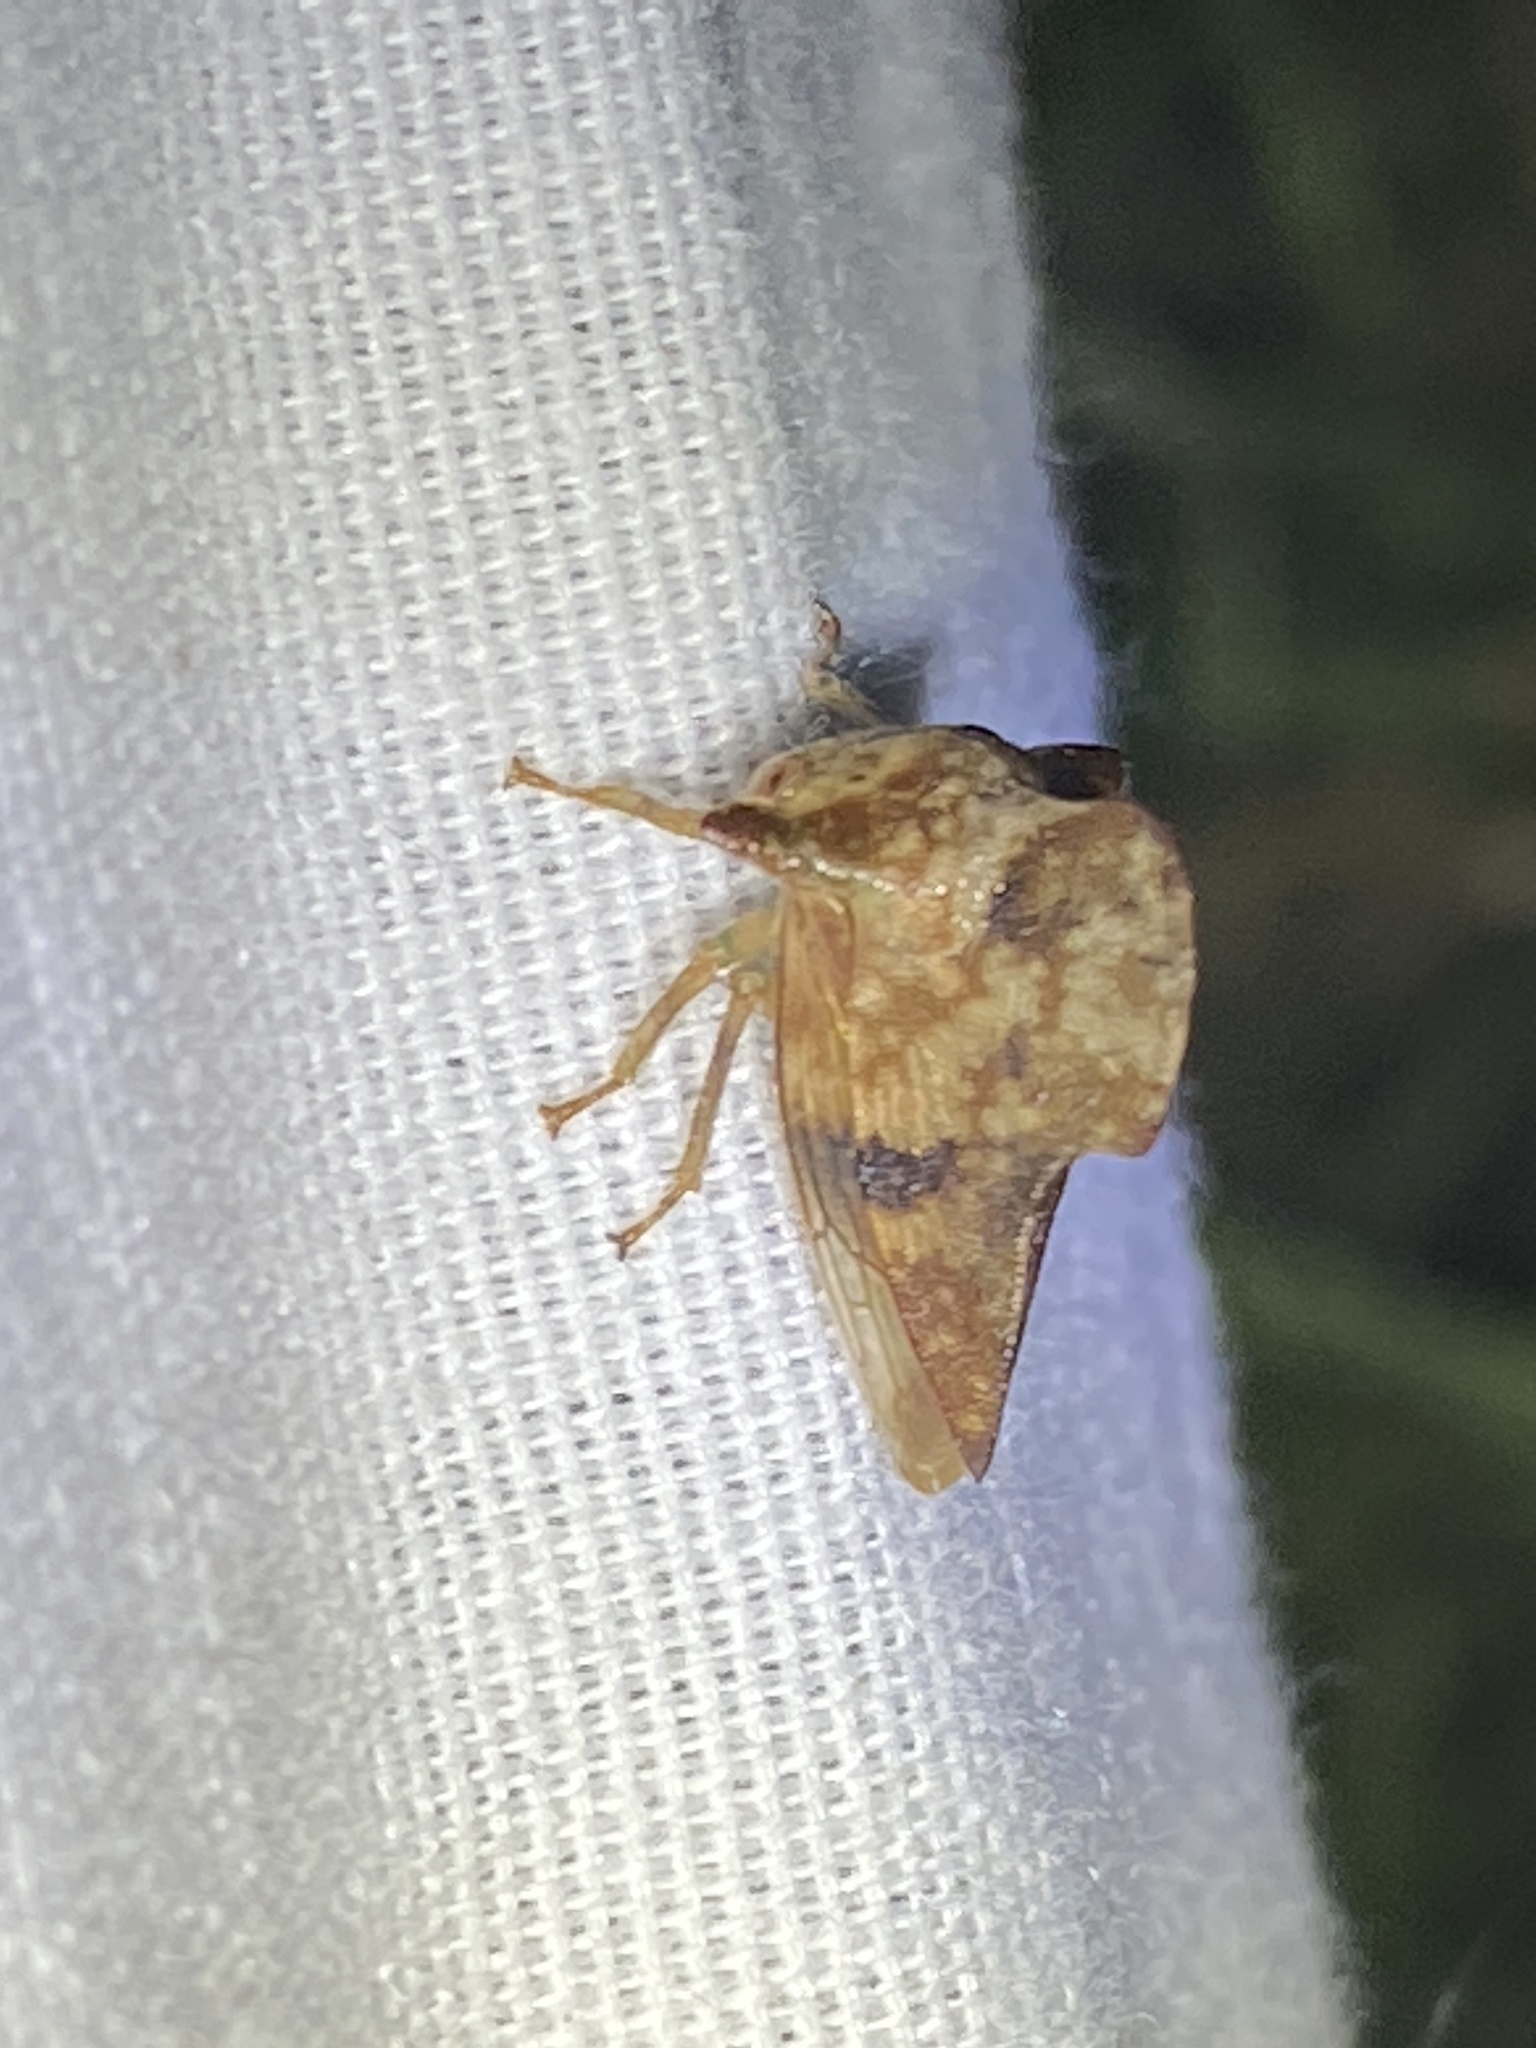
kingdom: Animalia
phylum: Arthropoda
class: Insecta
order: Hemiptera
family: Membracidae
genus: Telamona
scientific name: Telamona maculata
